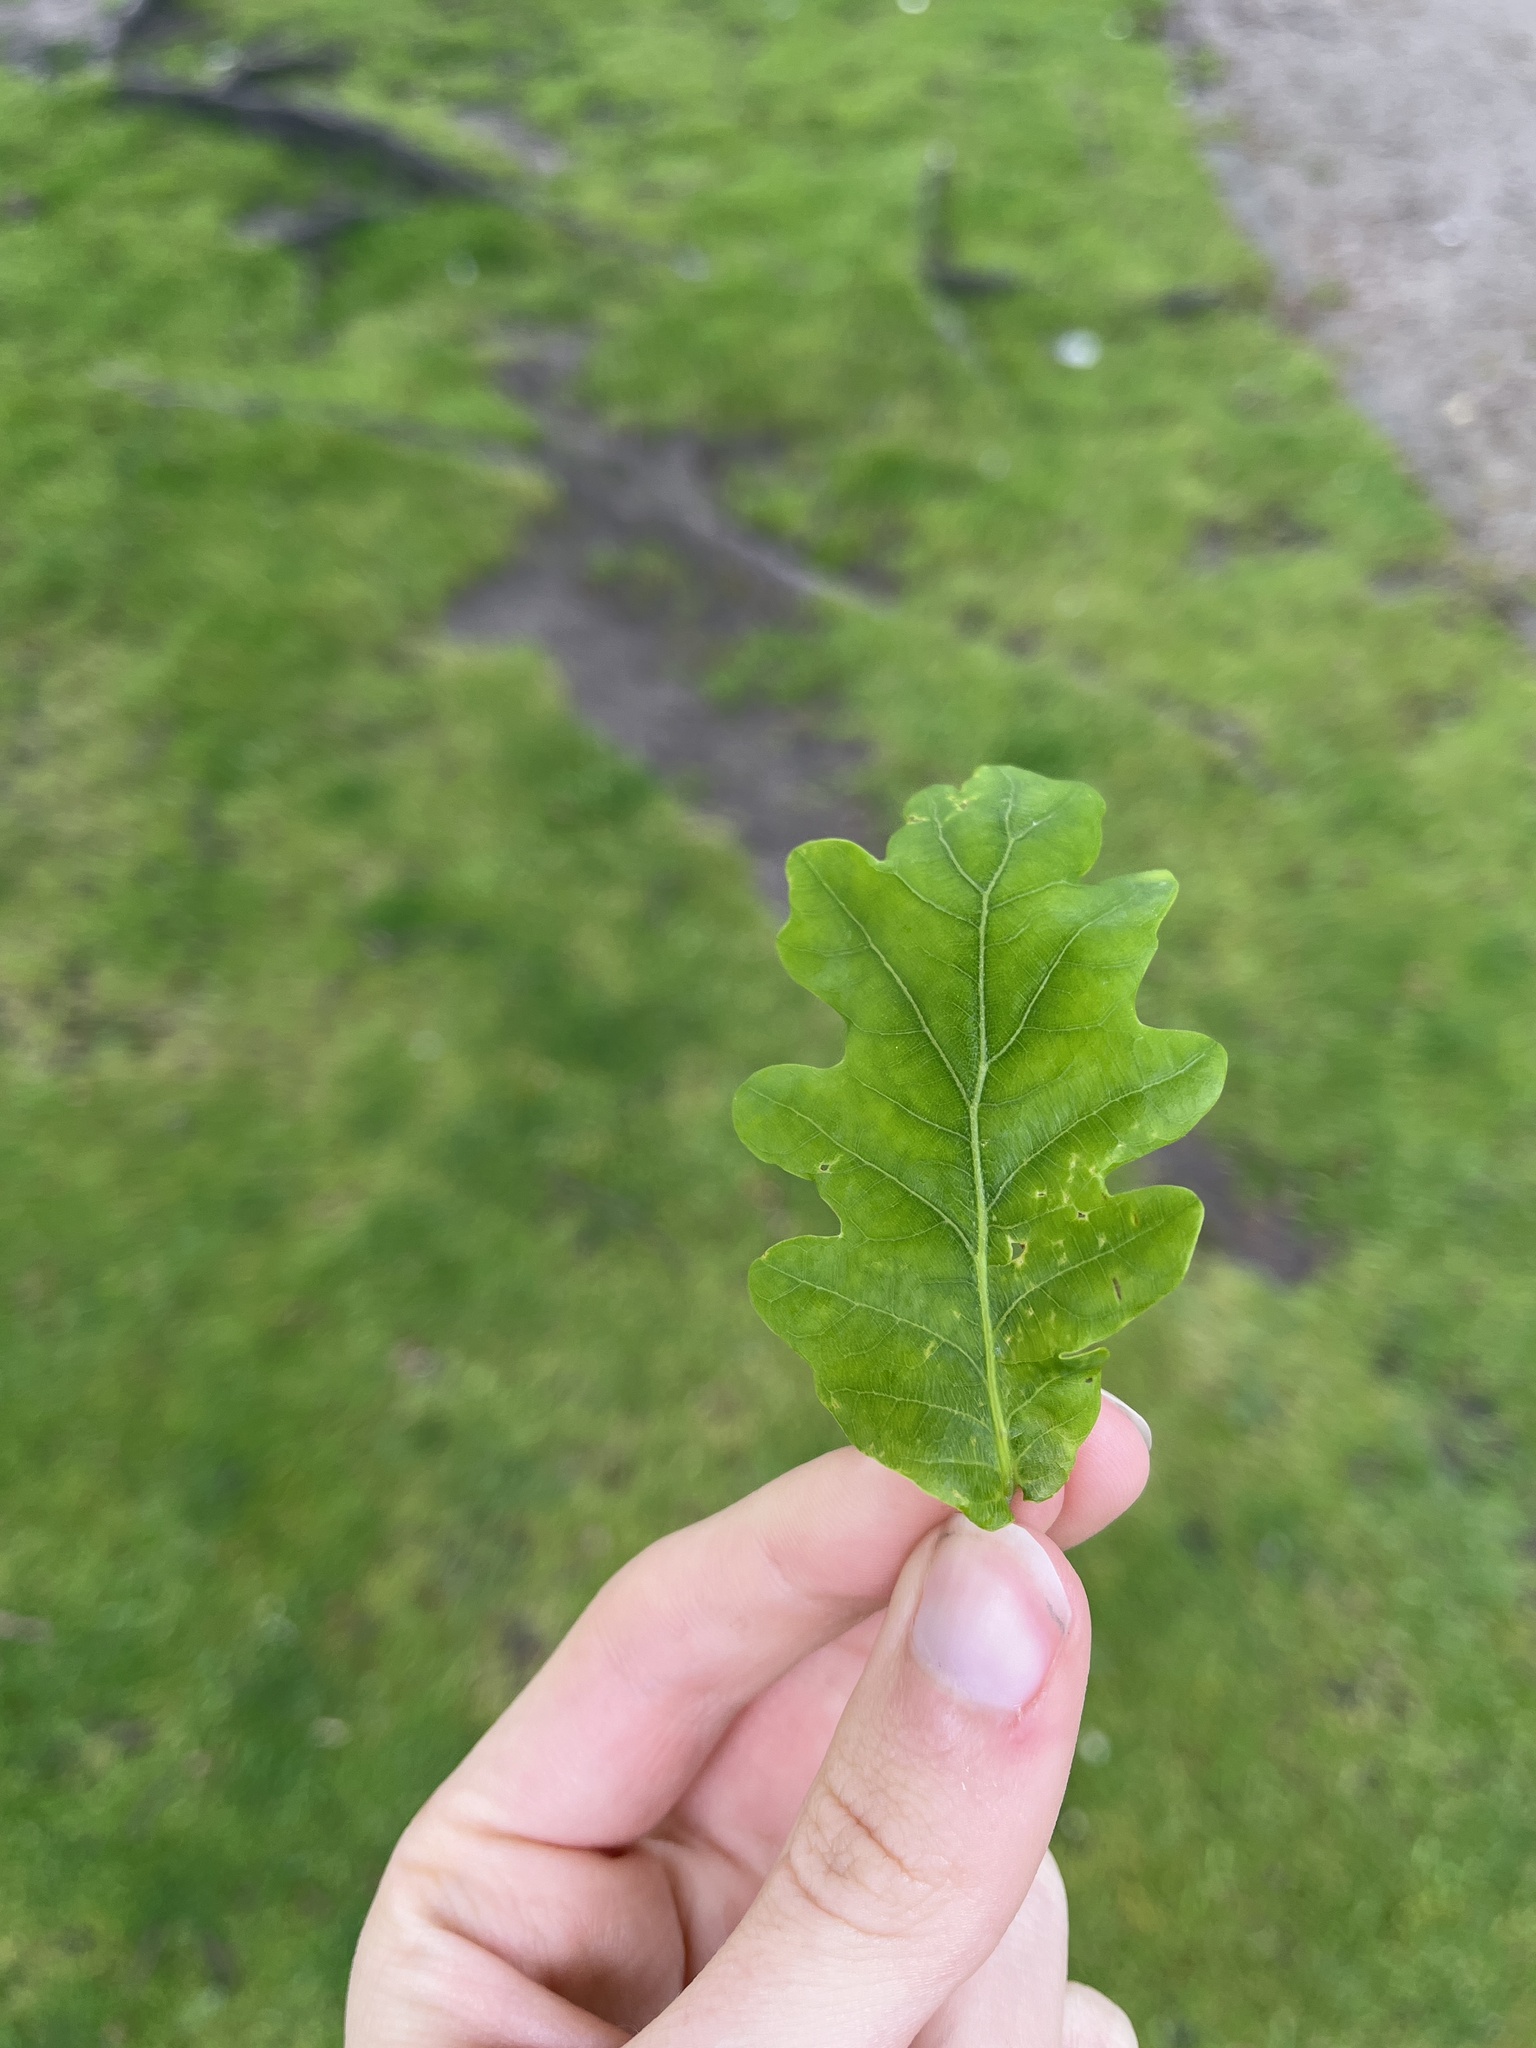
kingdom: Plantae
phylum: Tracheophyta
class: Magnoliopsida
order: Fagales
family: Fagaceae
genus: Quercus
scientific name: Quercus robur
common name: Pedunculate oak
